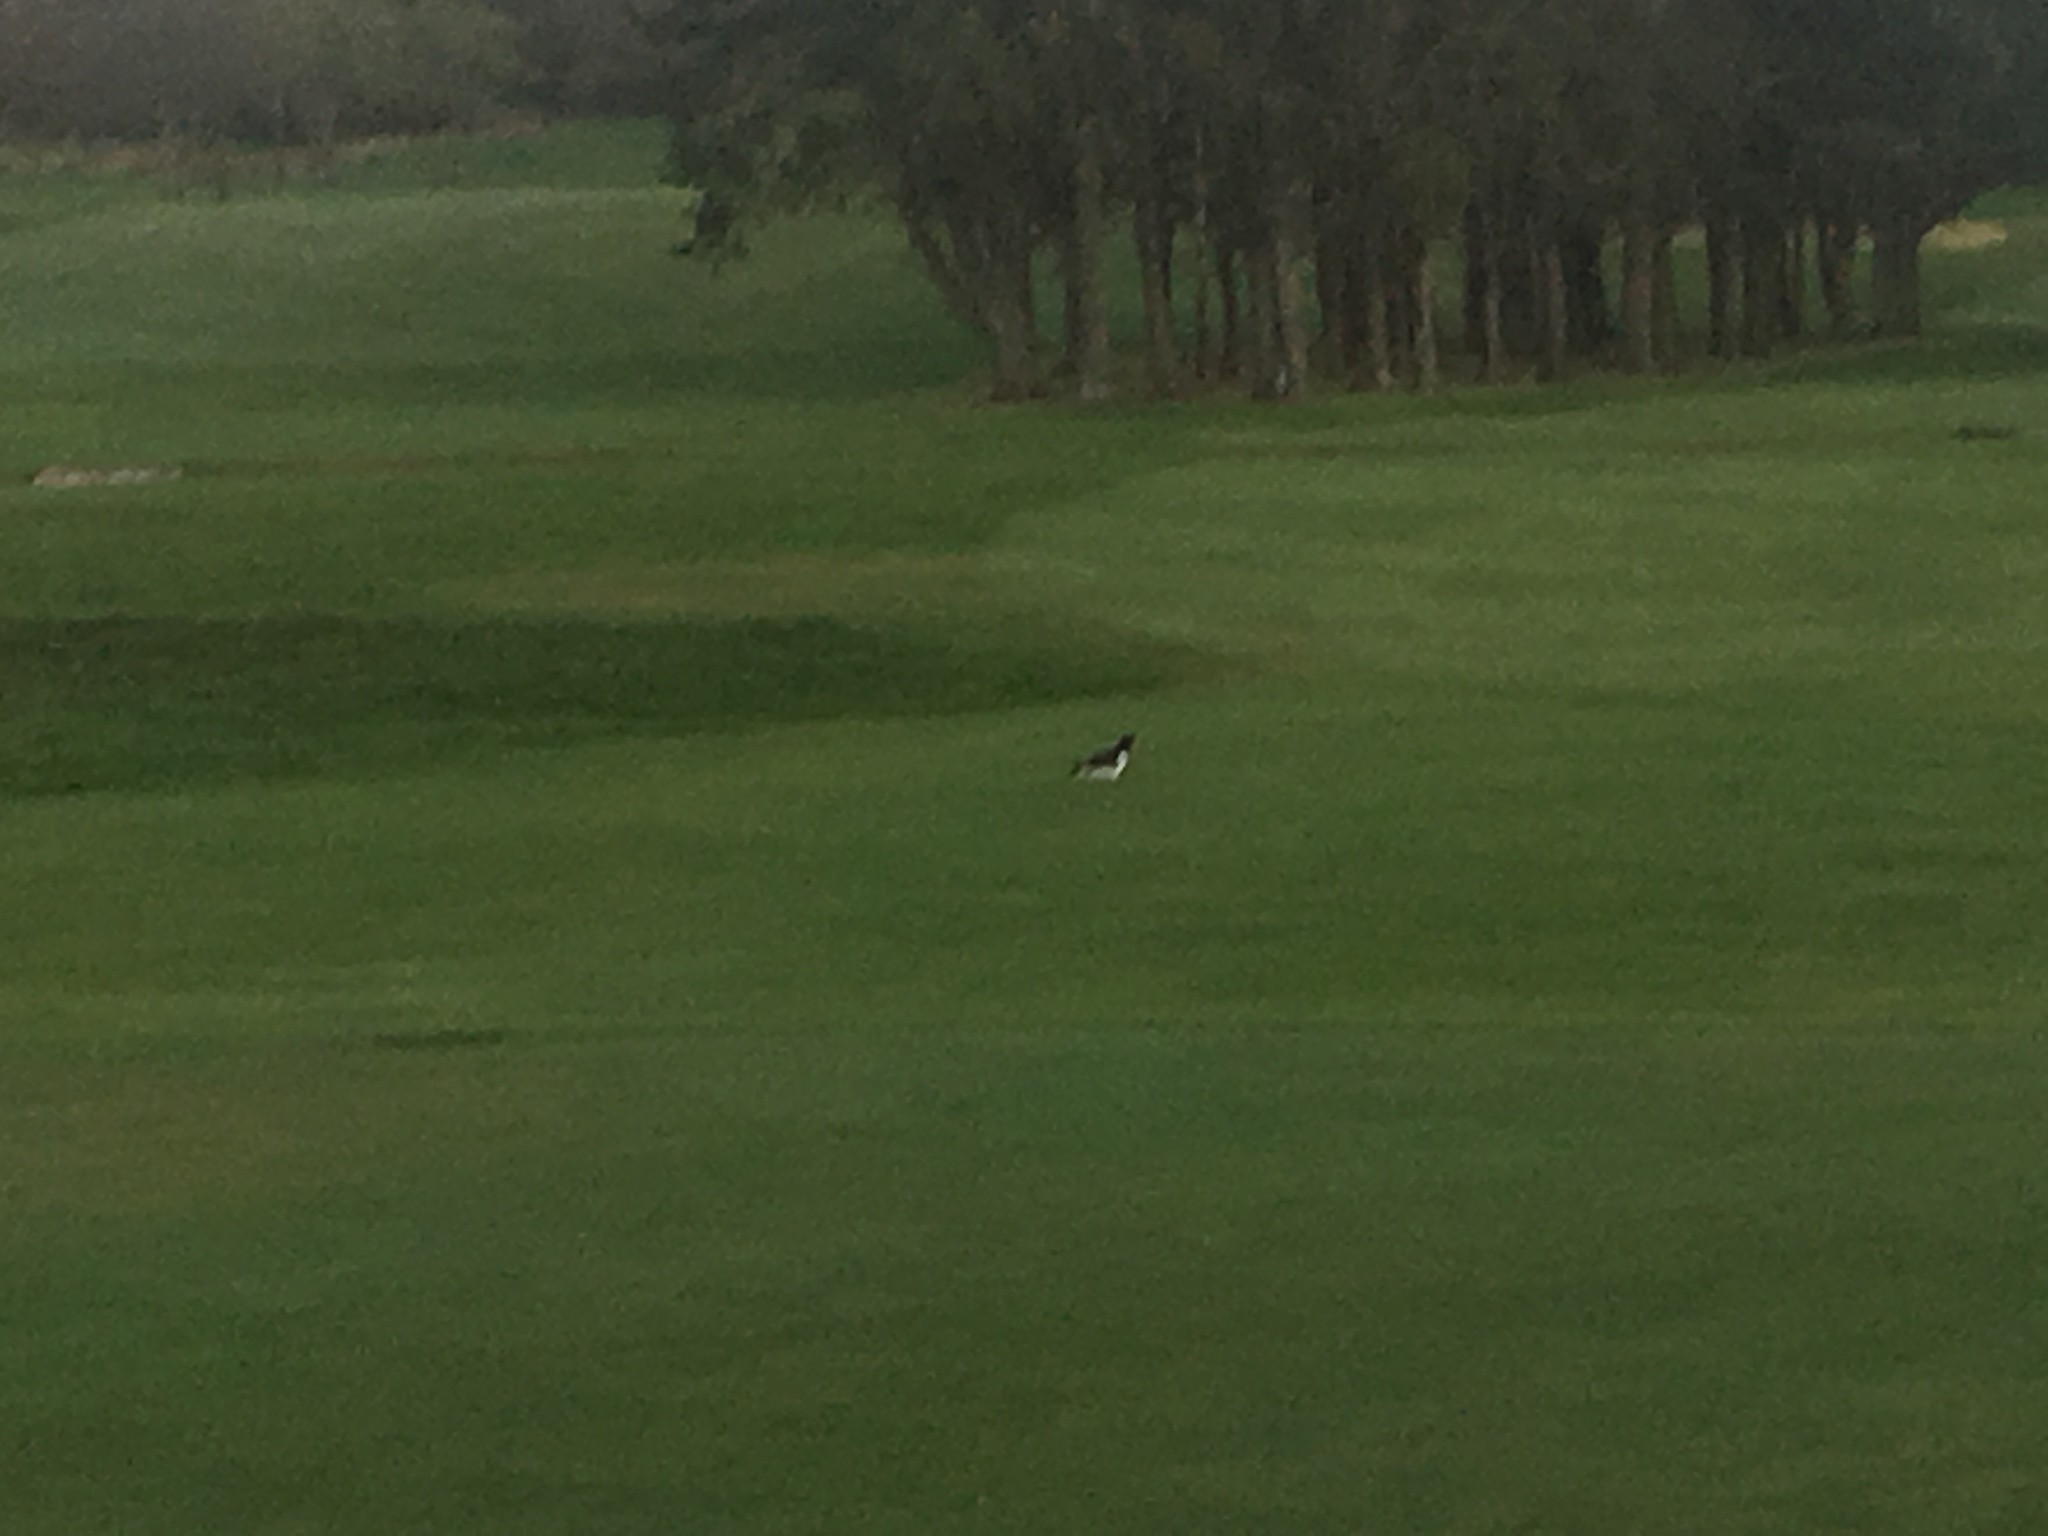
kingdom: Animalia
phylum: Chordata
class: Aves
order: Charadriiformes
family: Haematopodidae
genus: Haematopus
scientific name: Haematopus ostralegus
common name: Eurasian oystercatcher
